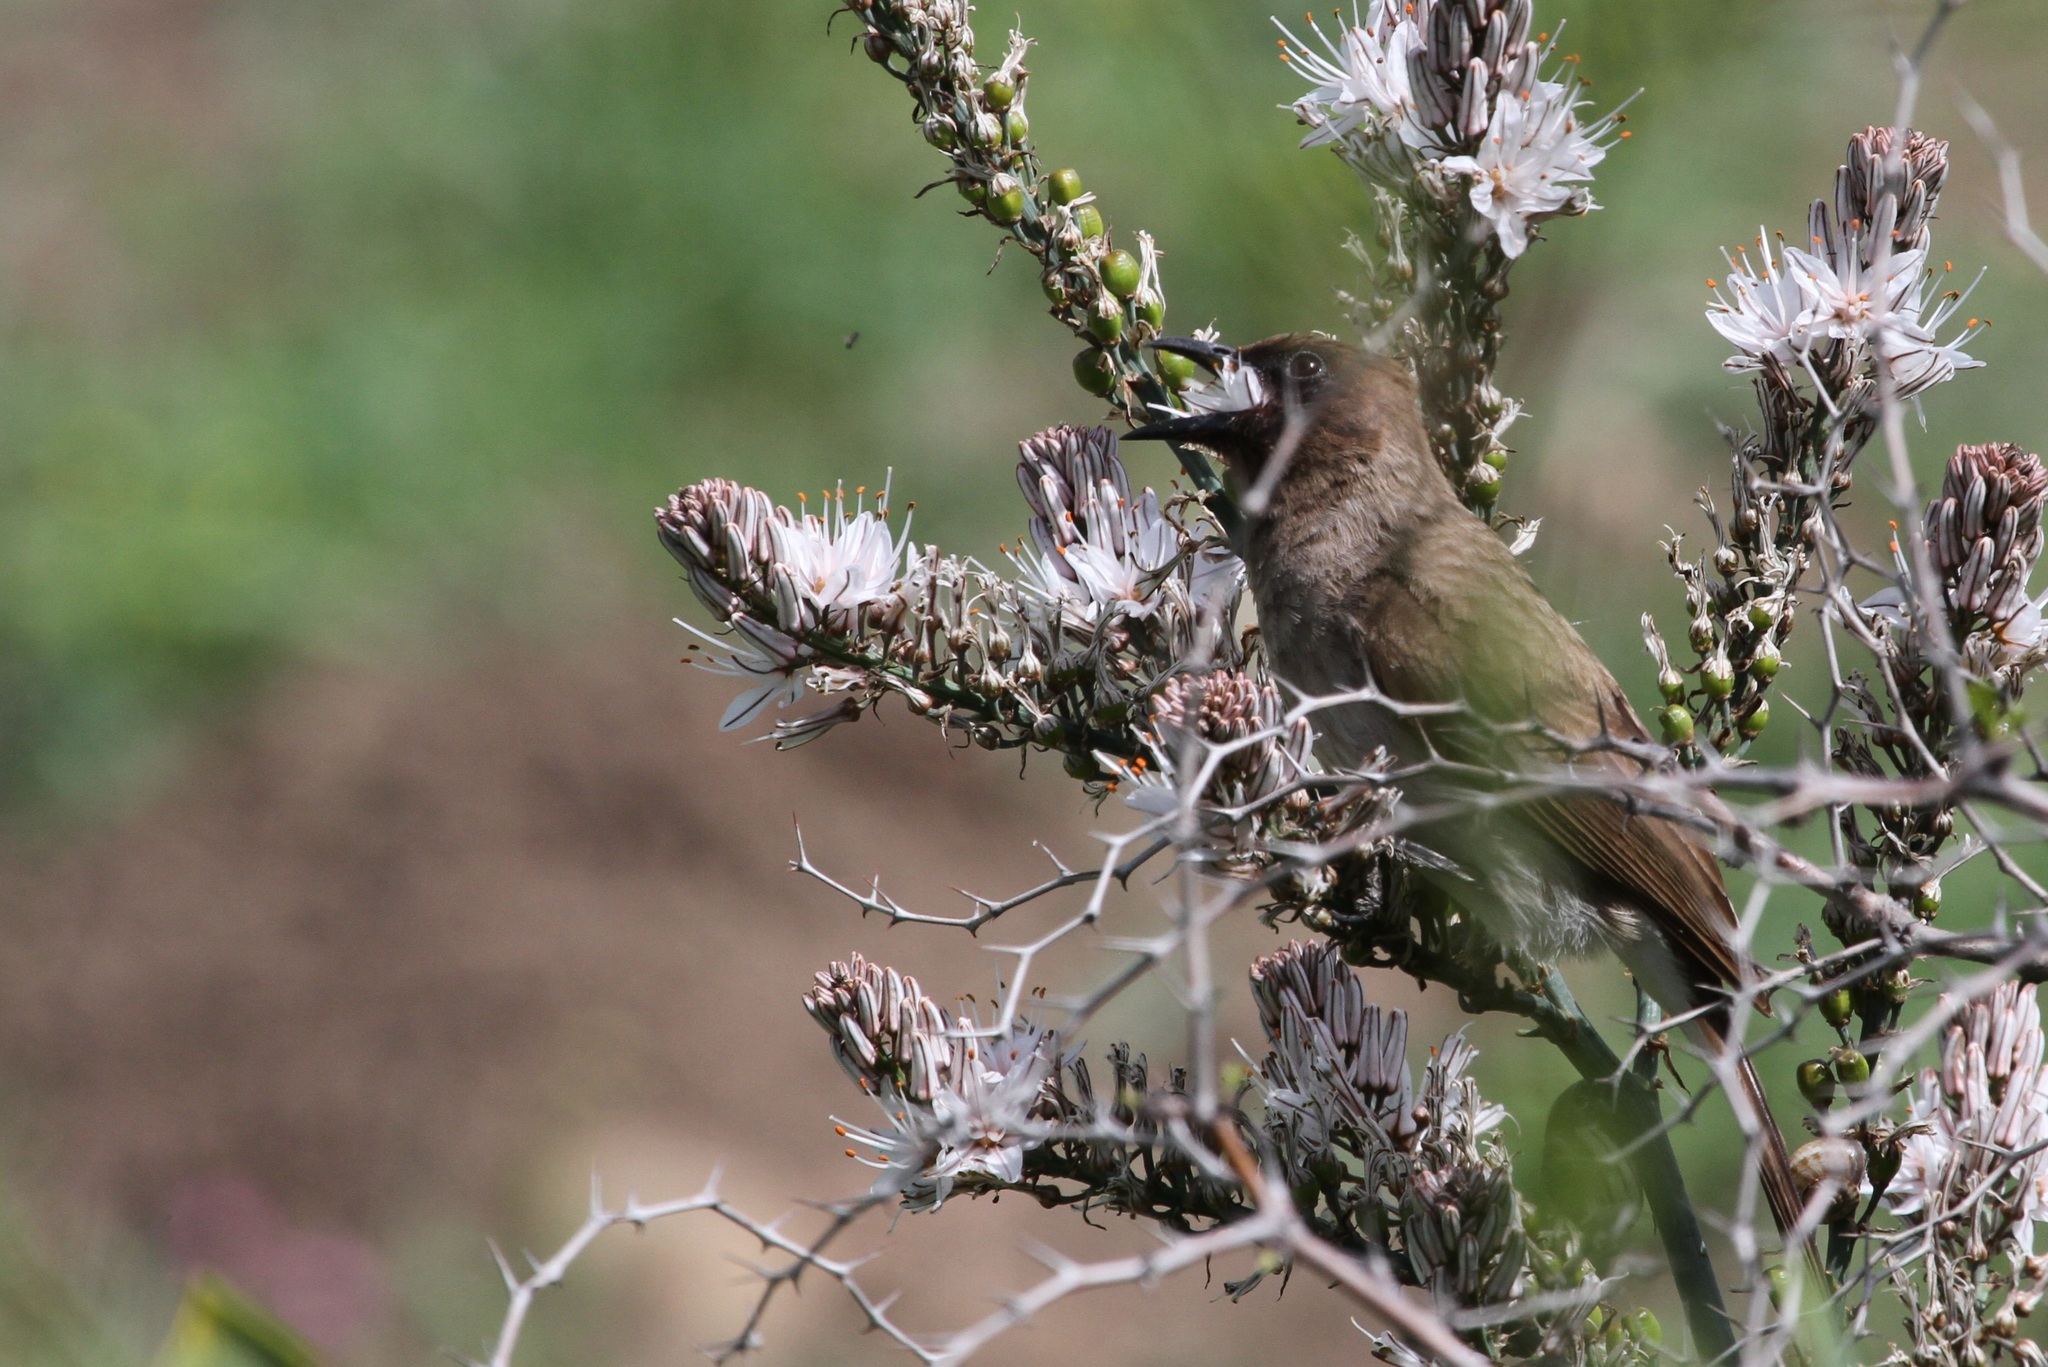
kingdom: Animalia
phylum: Chordata
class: Aves
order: Passeriformes
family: Pycnonotidae
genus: Pycnonotus
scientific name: Pycnonotus barbatus
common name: Common bulbul
